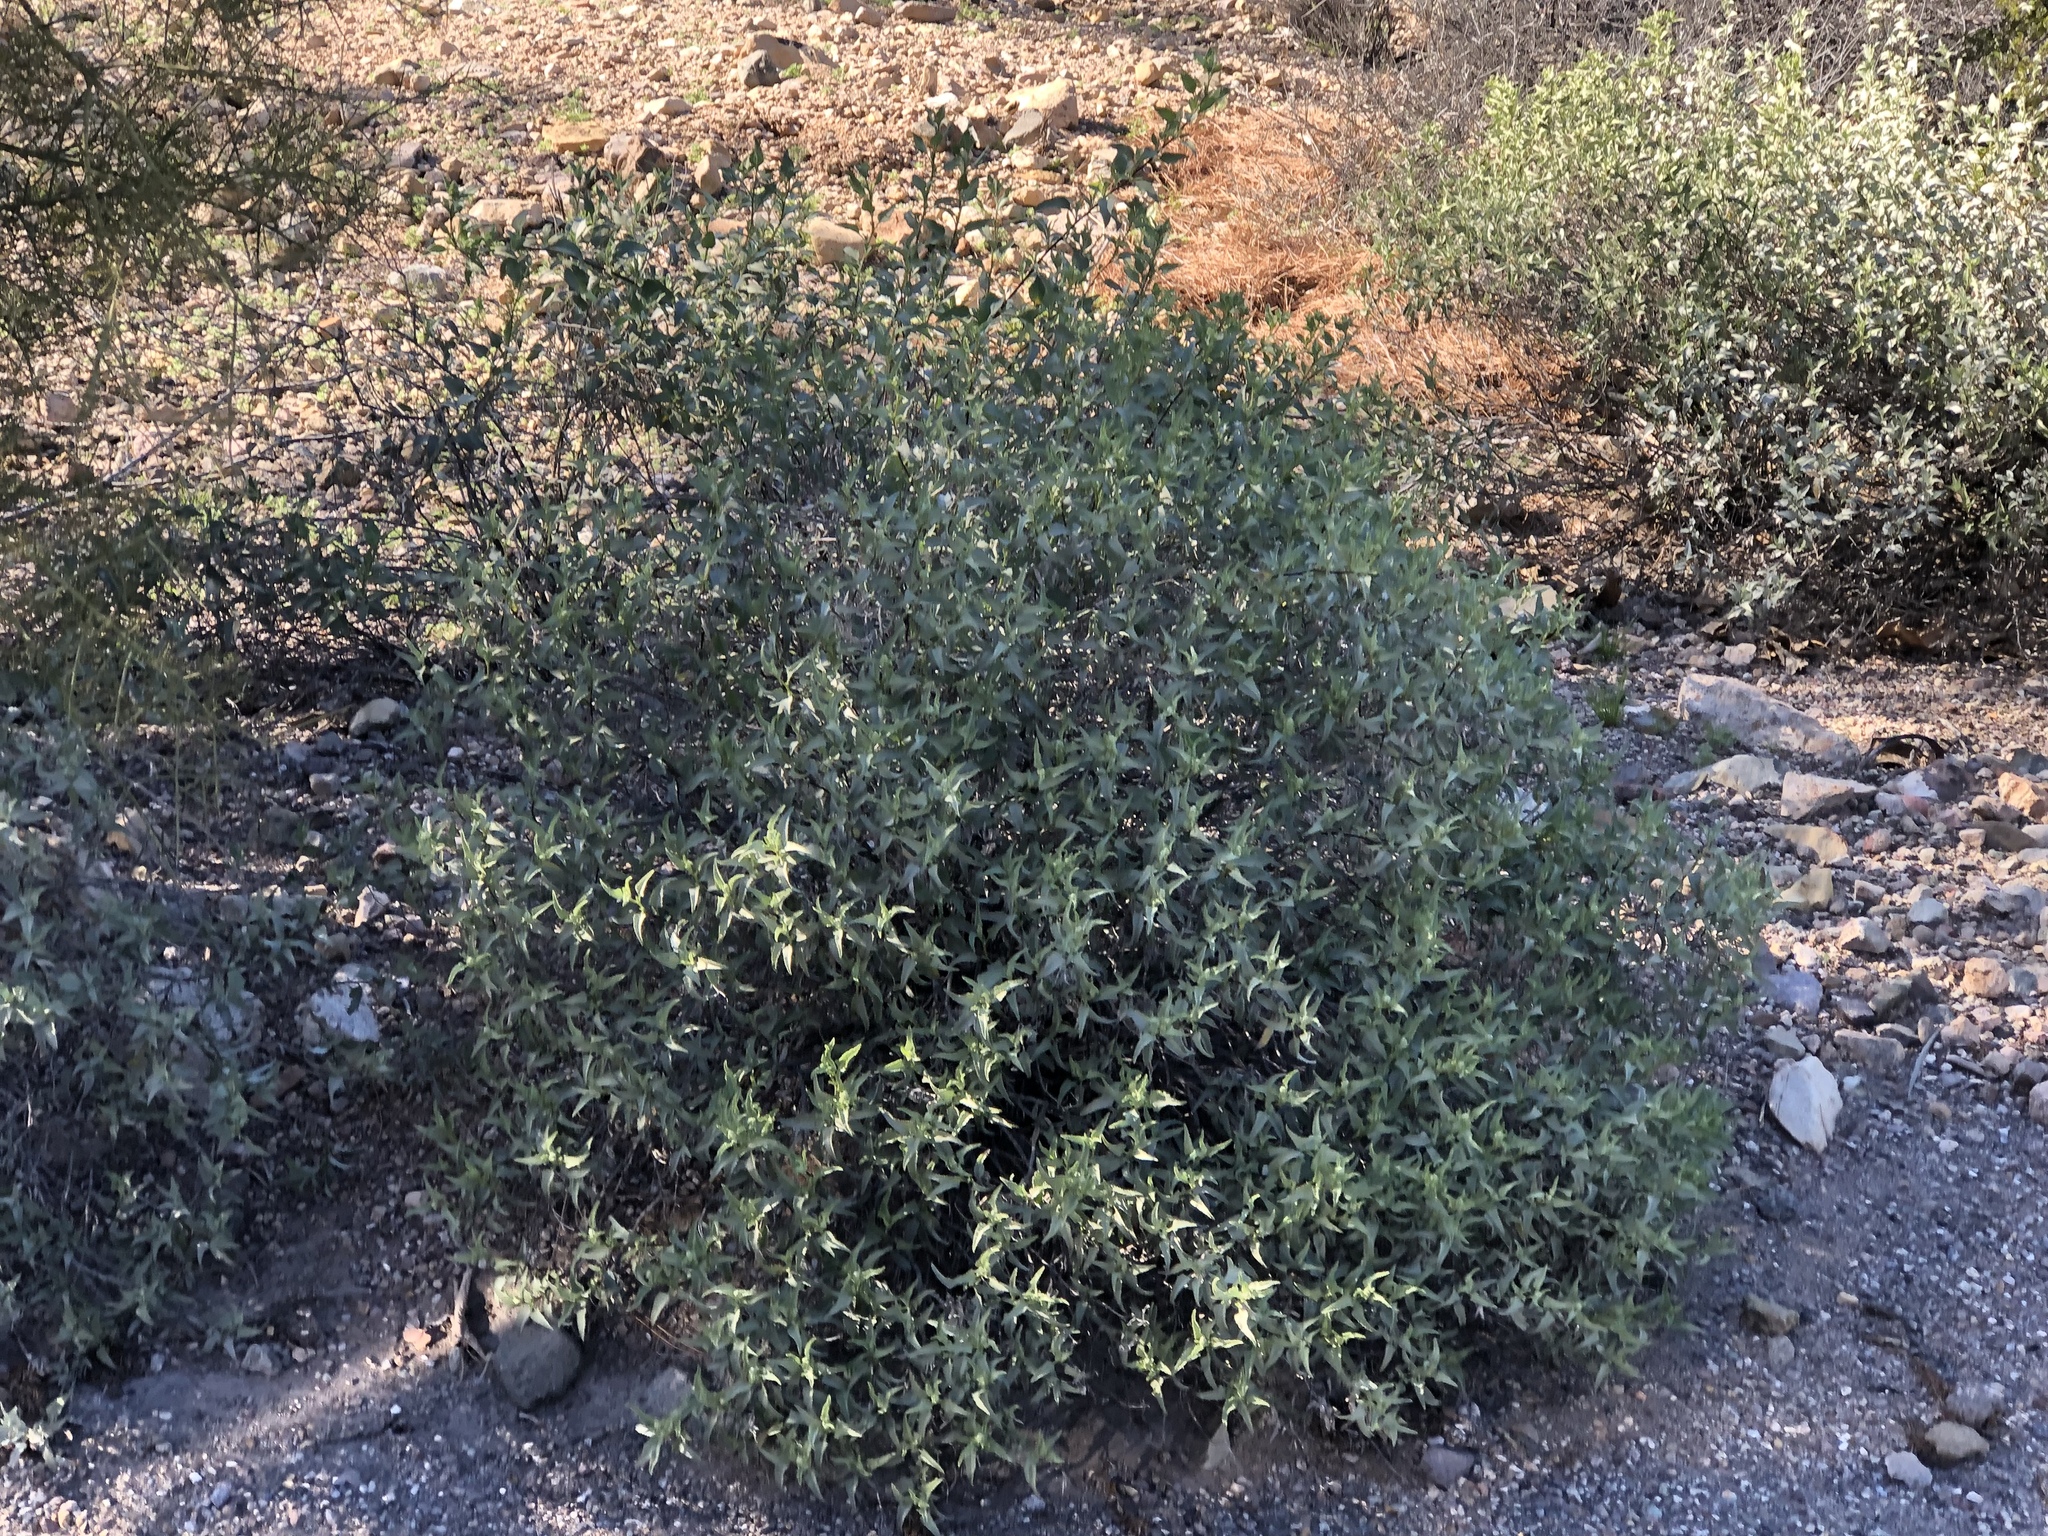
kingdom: Plantae
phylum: Tracheophyta
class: Magnoliopsida
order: Asterales
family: Asteraceae
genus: Ambrosia
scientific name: Ambrosia deltoidea
